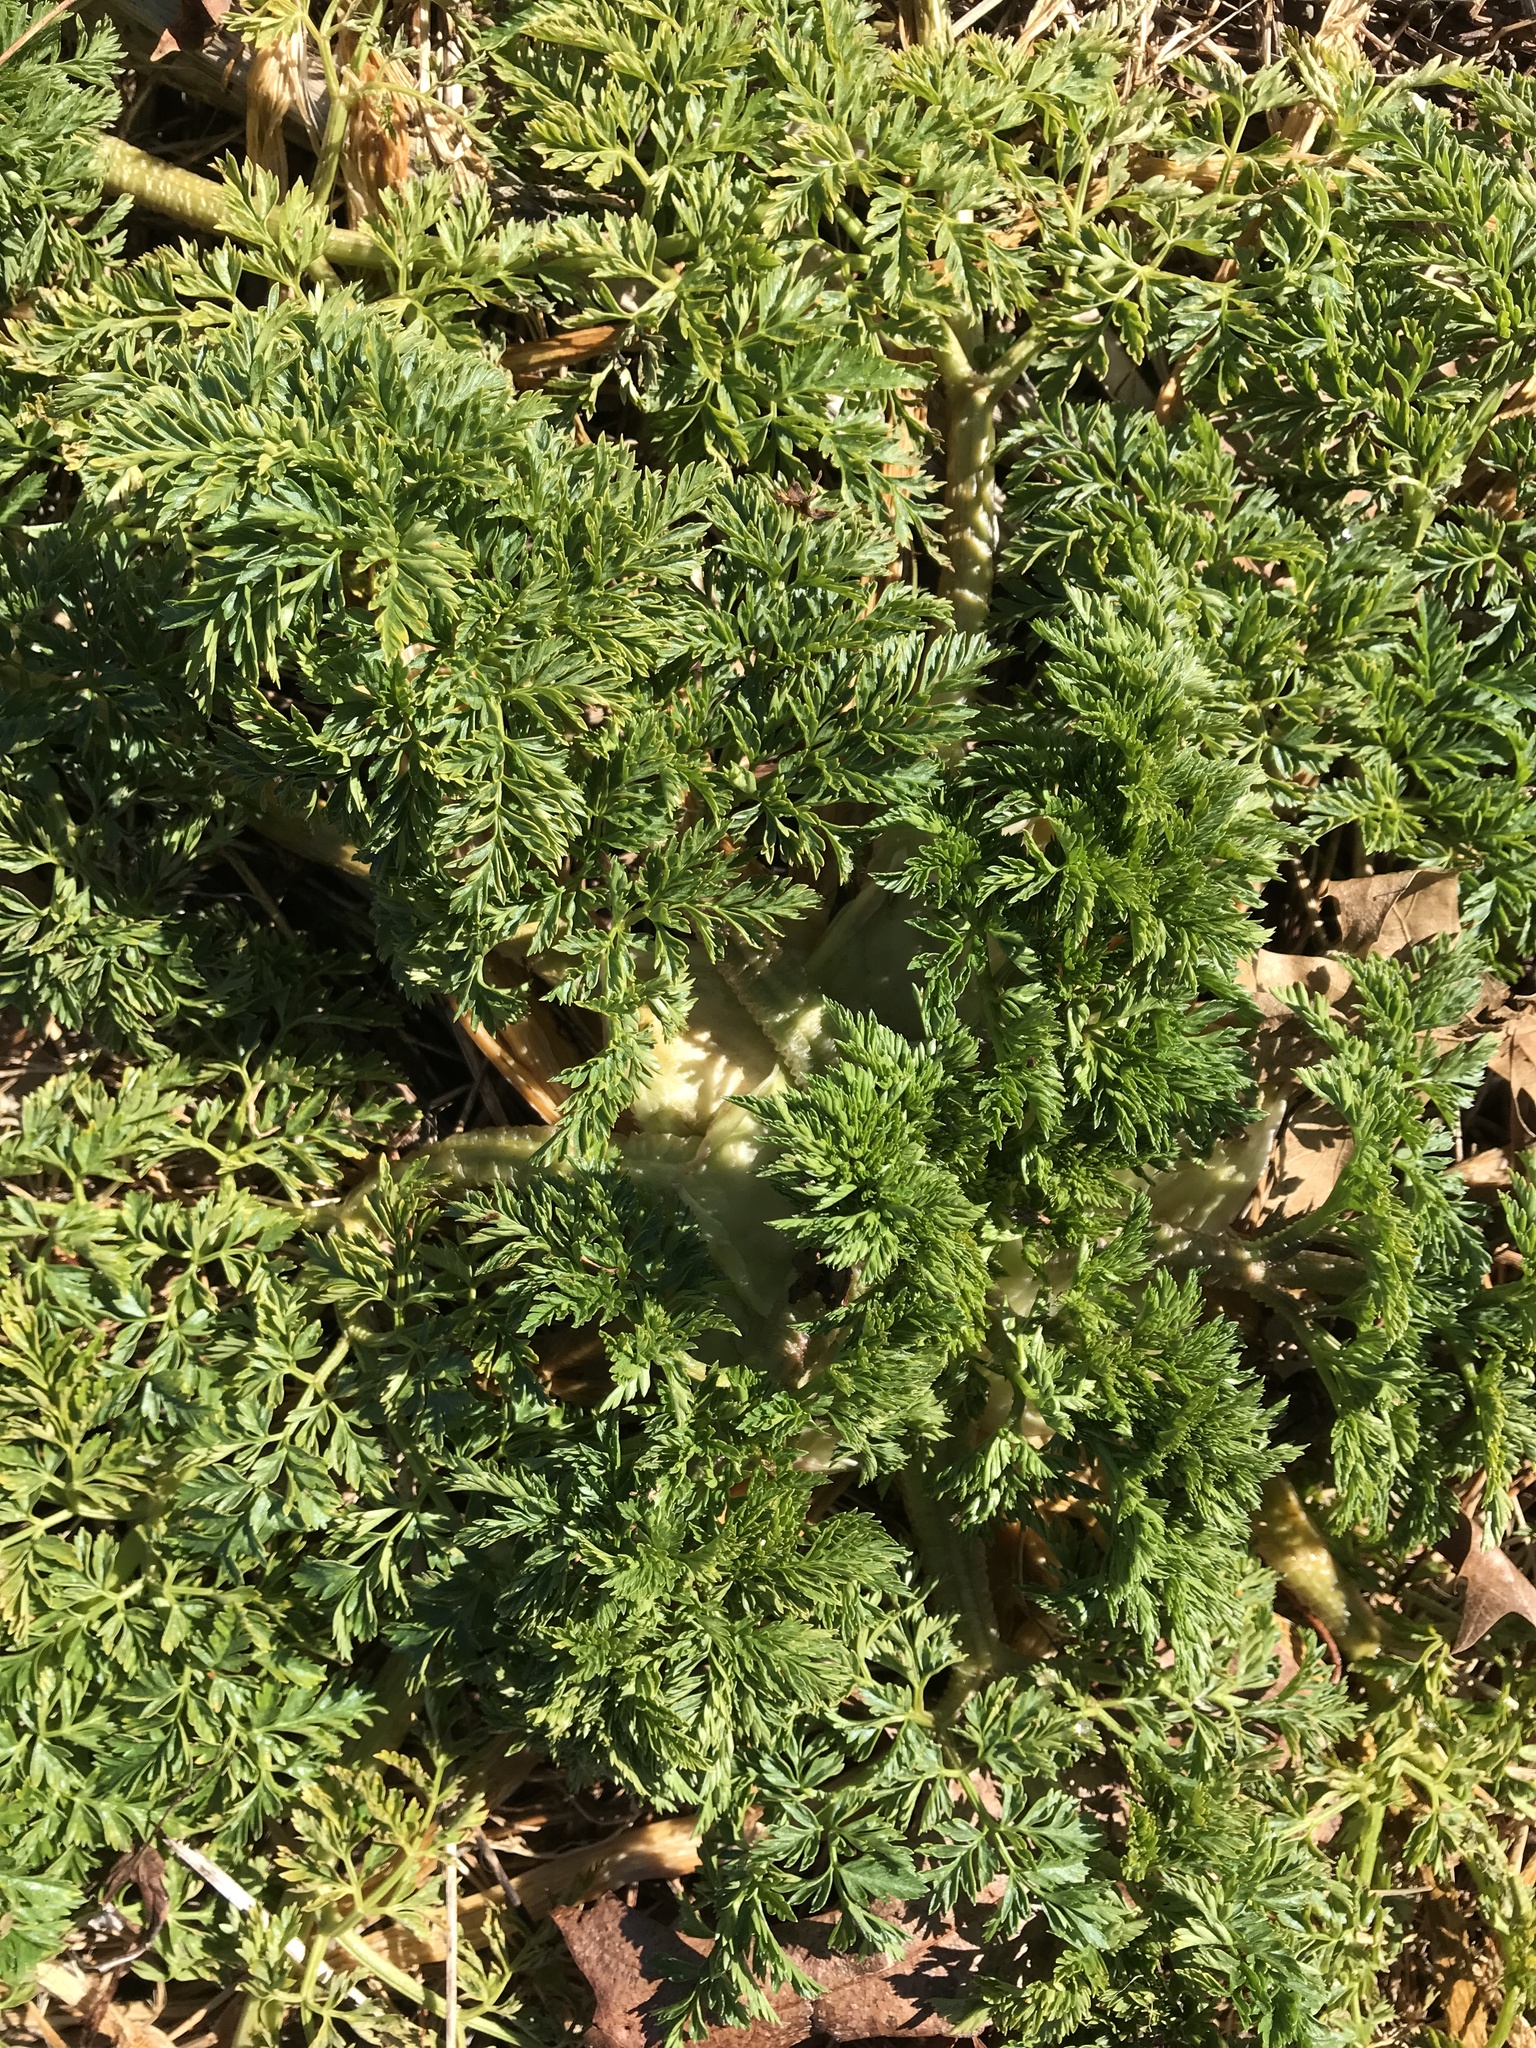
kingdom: Plantae
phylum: Tracheophyta
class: Magnoliopsida
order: Apiales
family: Apiaceae
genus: Conium
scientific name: Conium maculatum
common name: Hemlock
